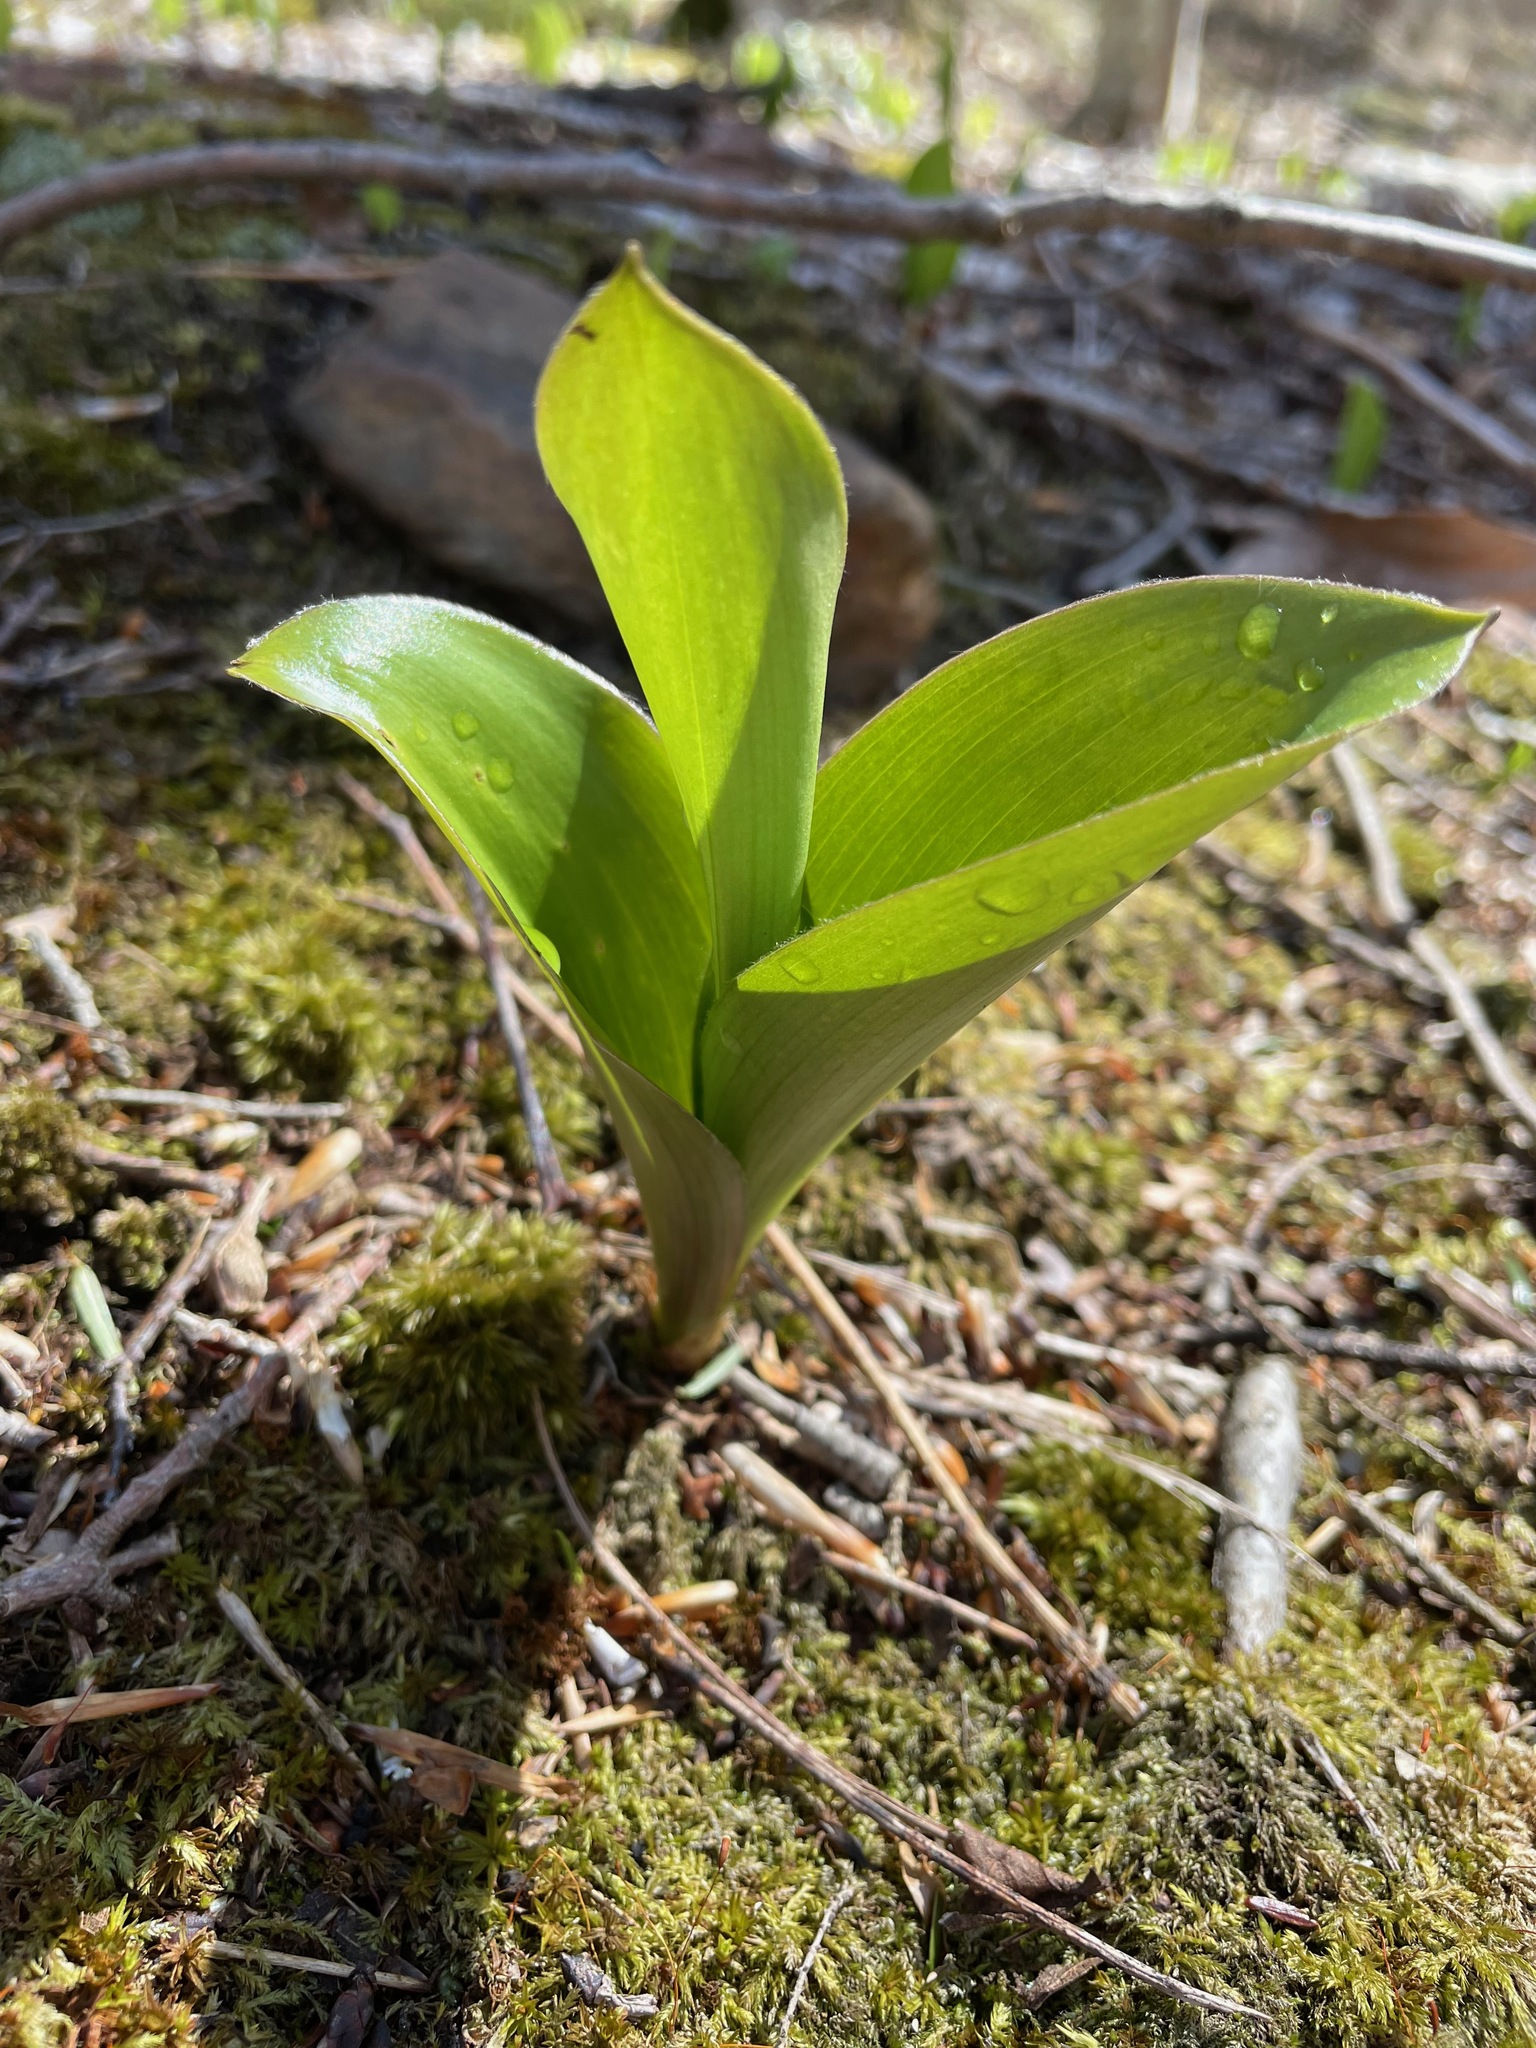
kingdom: Plantae
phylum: Tracheophyta
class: Liliopsida
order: Liliales
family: Liliaceae
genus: Clintonia
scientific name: Clintonia borealis
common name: Yellow clintonia
